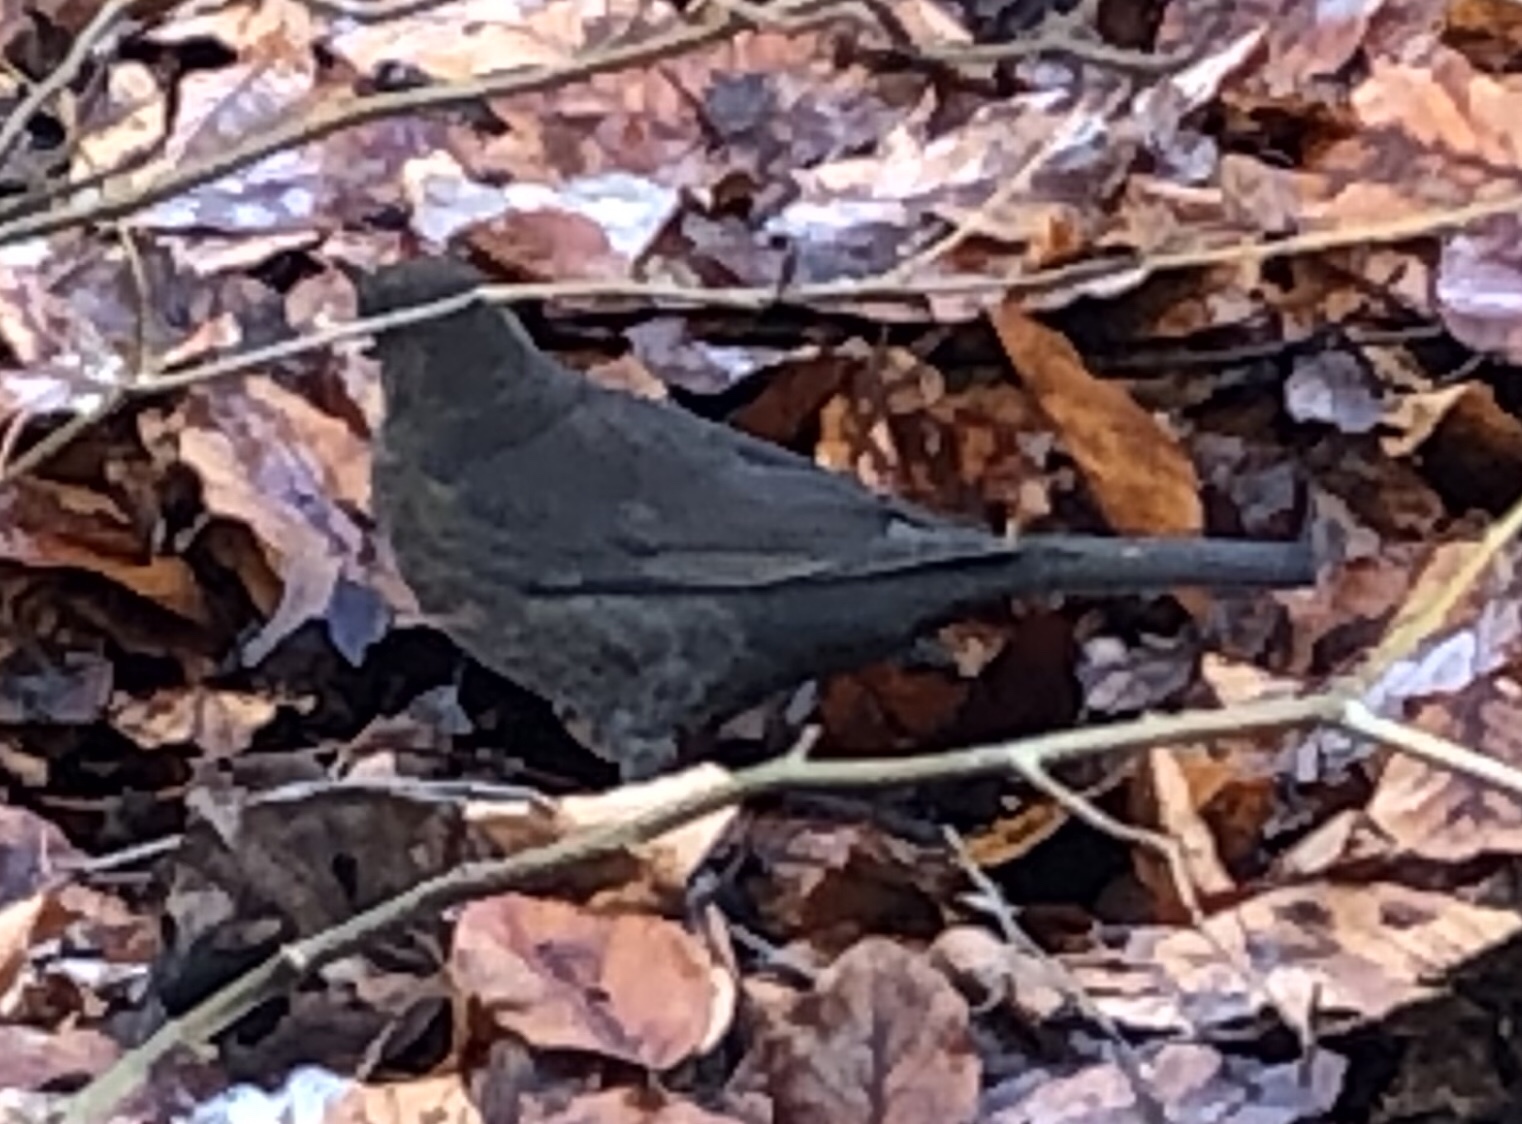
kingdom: Animalia
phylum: Chordata
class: Aves
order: Passeriformes
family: Turdidae
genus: Turdus
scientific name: Turdus merula
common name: Common blackbird
